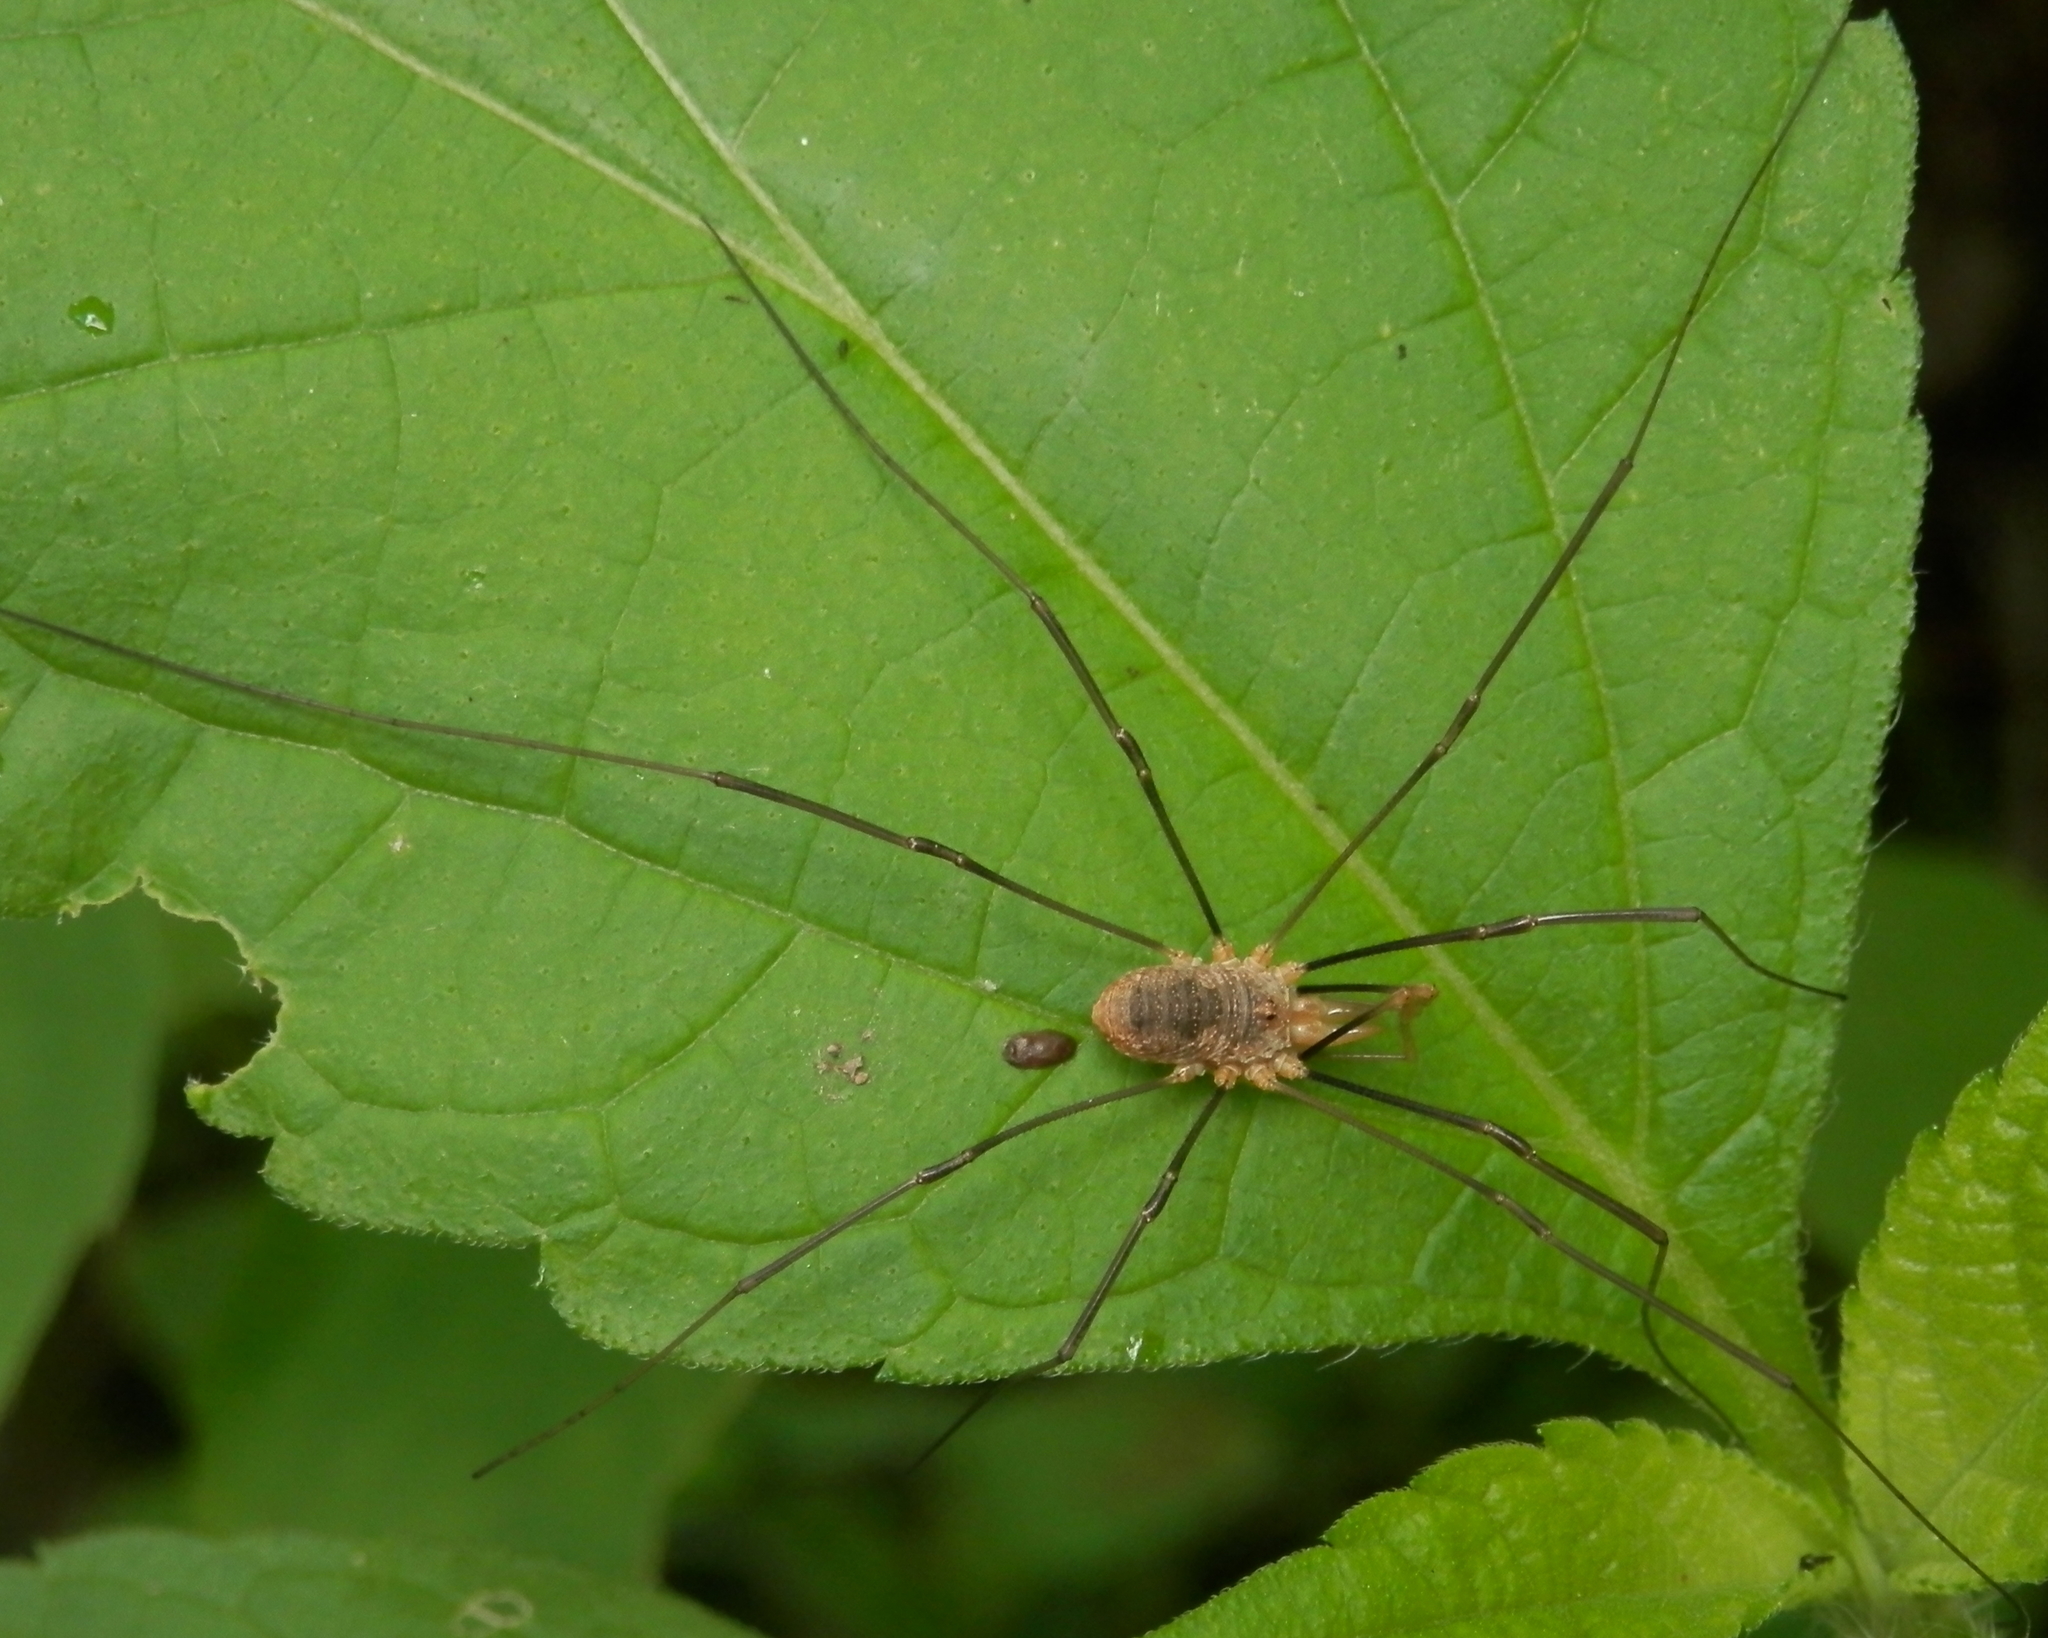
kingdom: Animalia
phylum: Arthropoda
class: Arachnida
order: Opiliones
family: Phalangiidae
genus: Phalangium
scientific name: Phalangium opilio
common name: Daddy longleg
